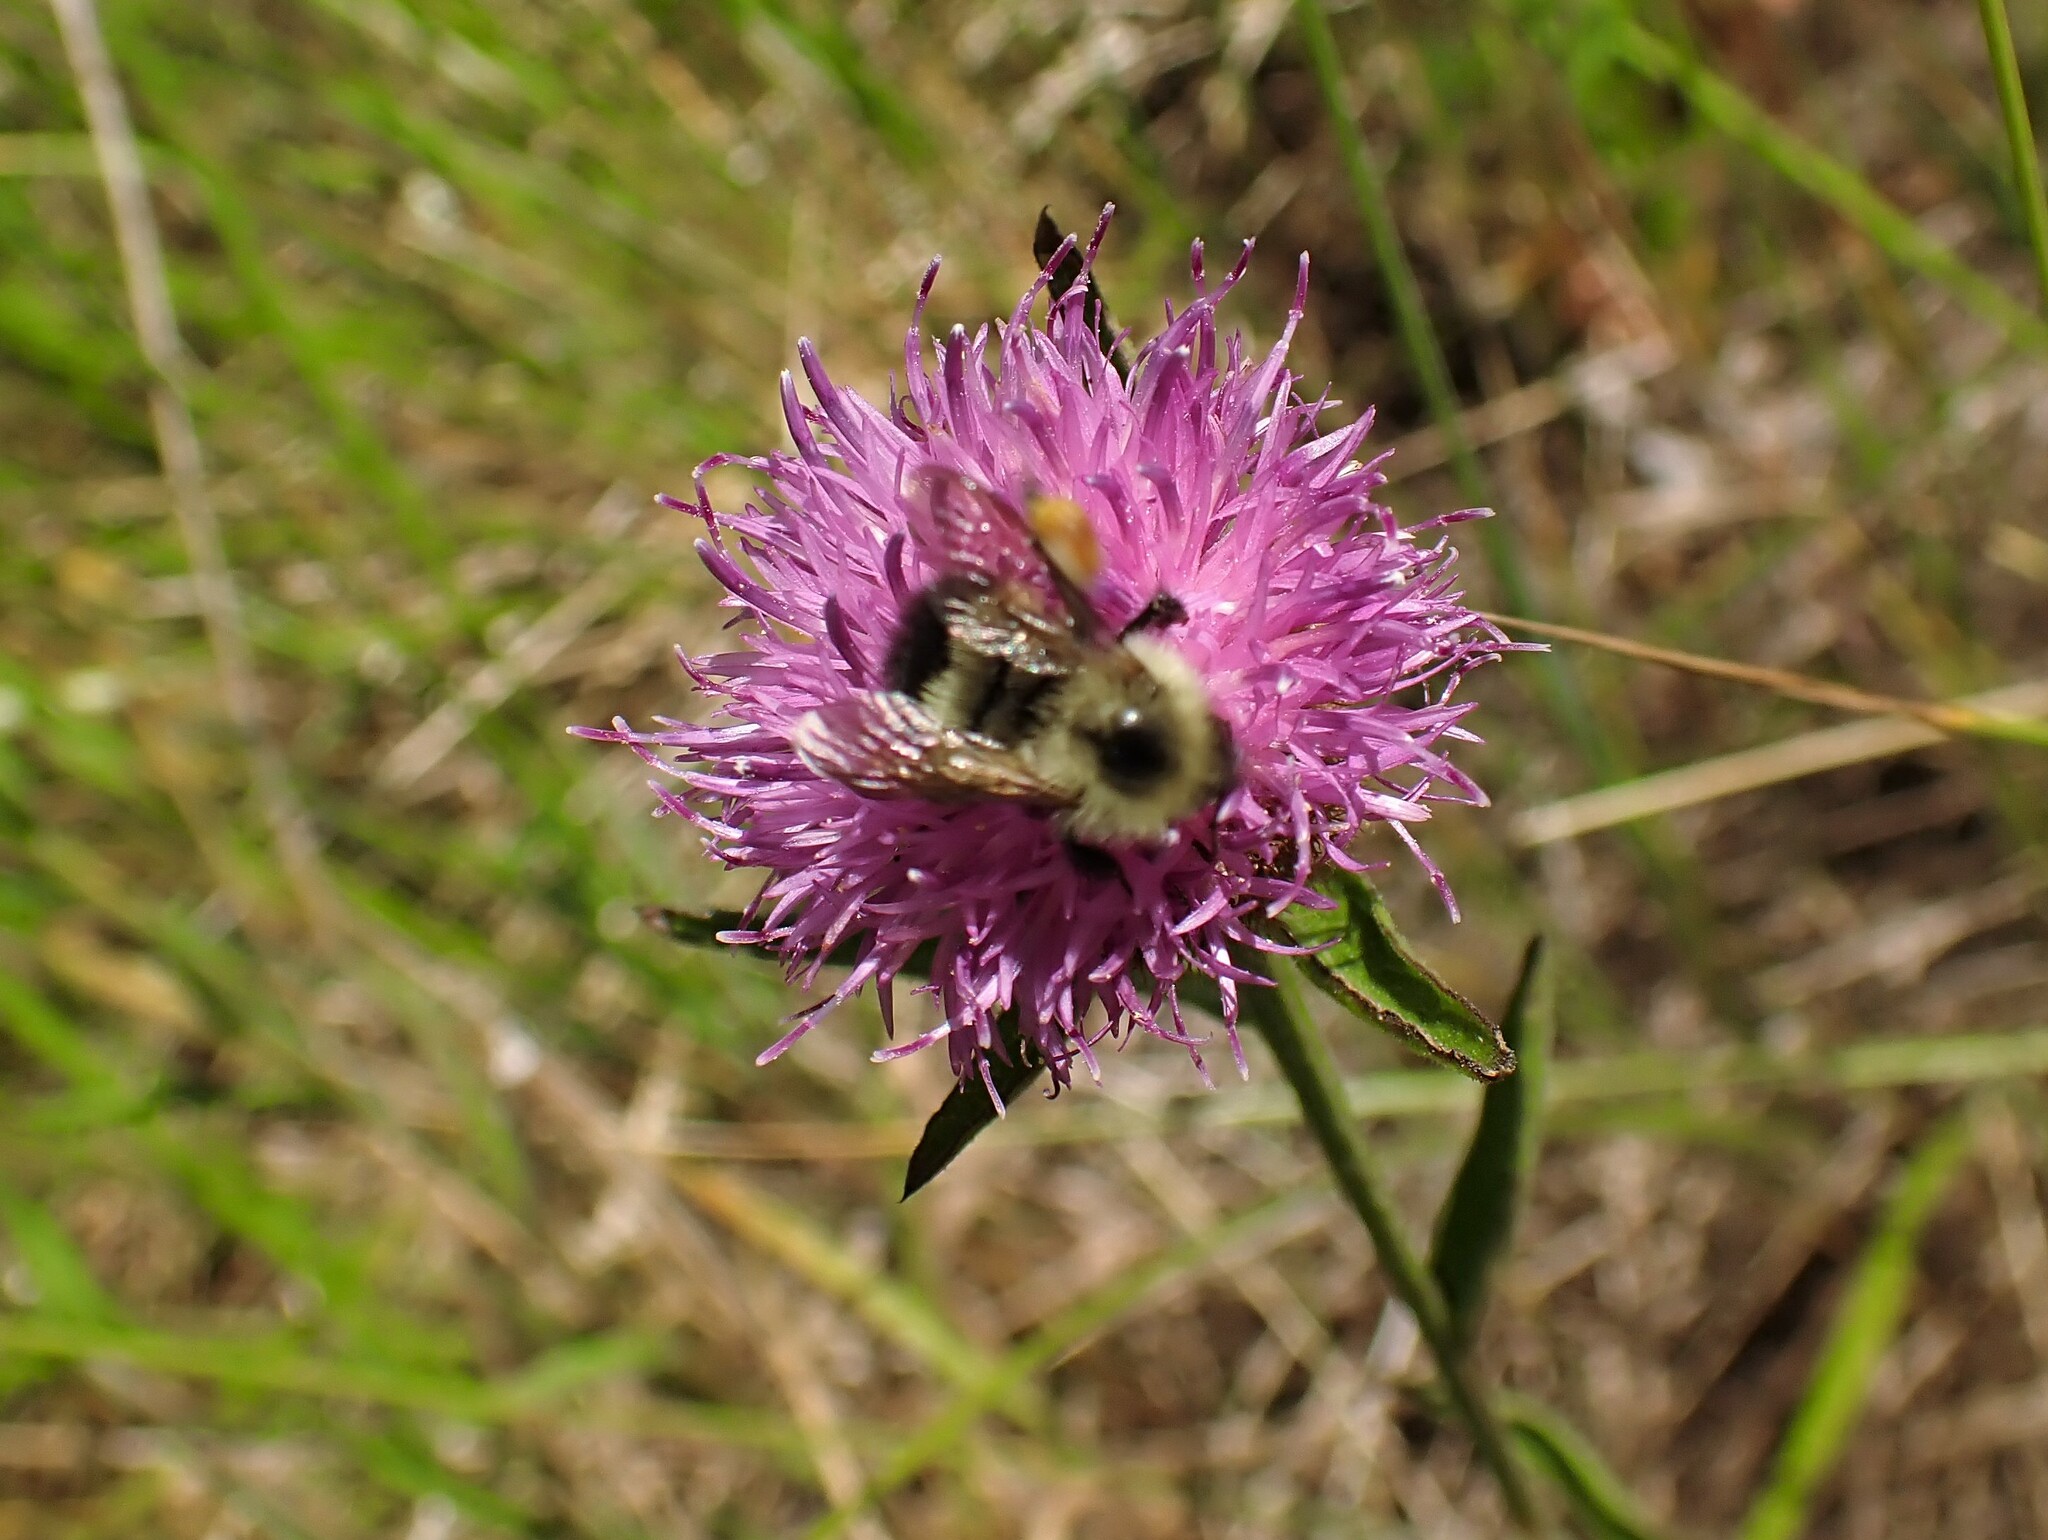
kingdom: Animalia
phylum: Arthropoda
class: Insecta
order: Hymenoptera
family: Apidae
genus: Pyrobombus
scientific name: Pyrobombus
